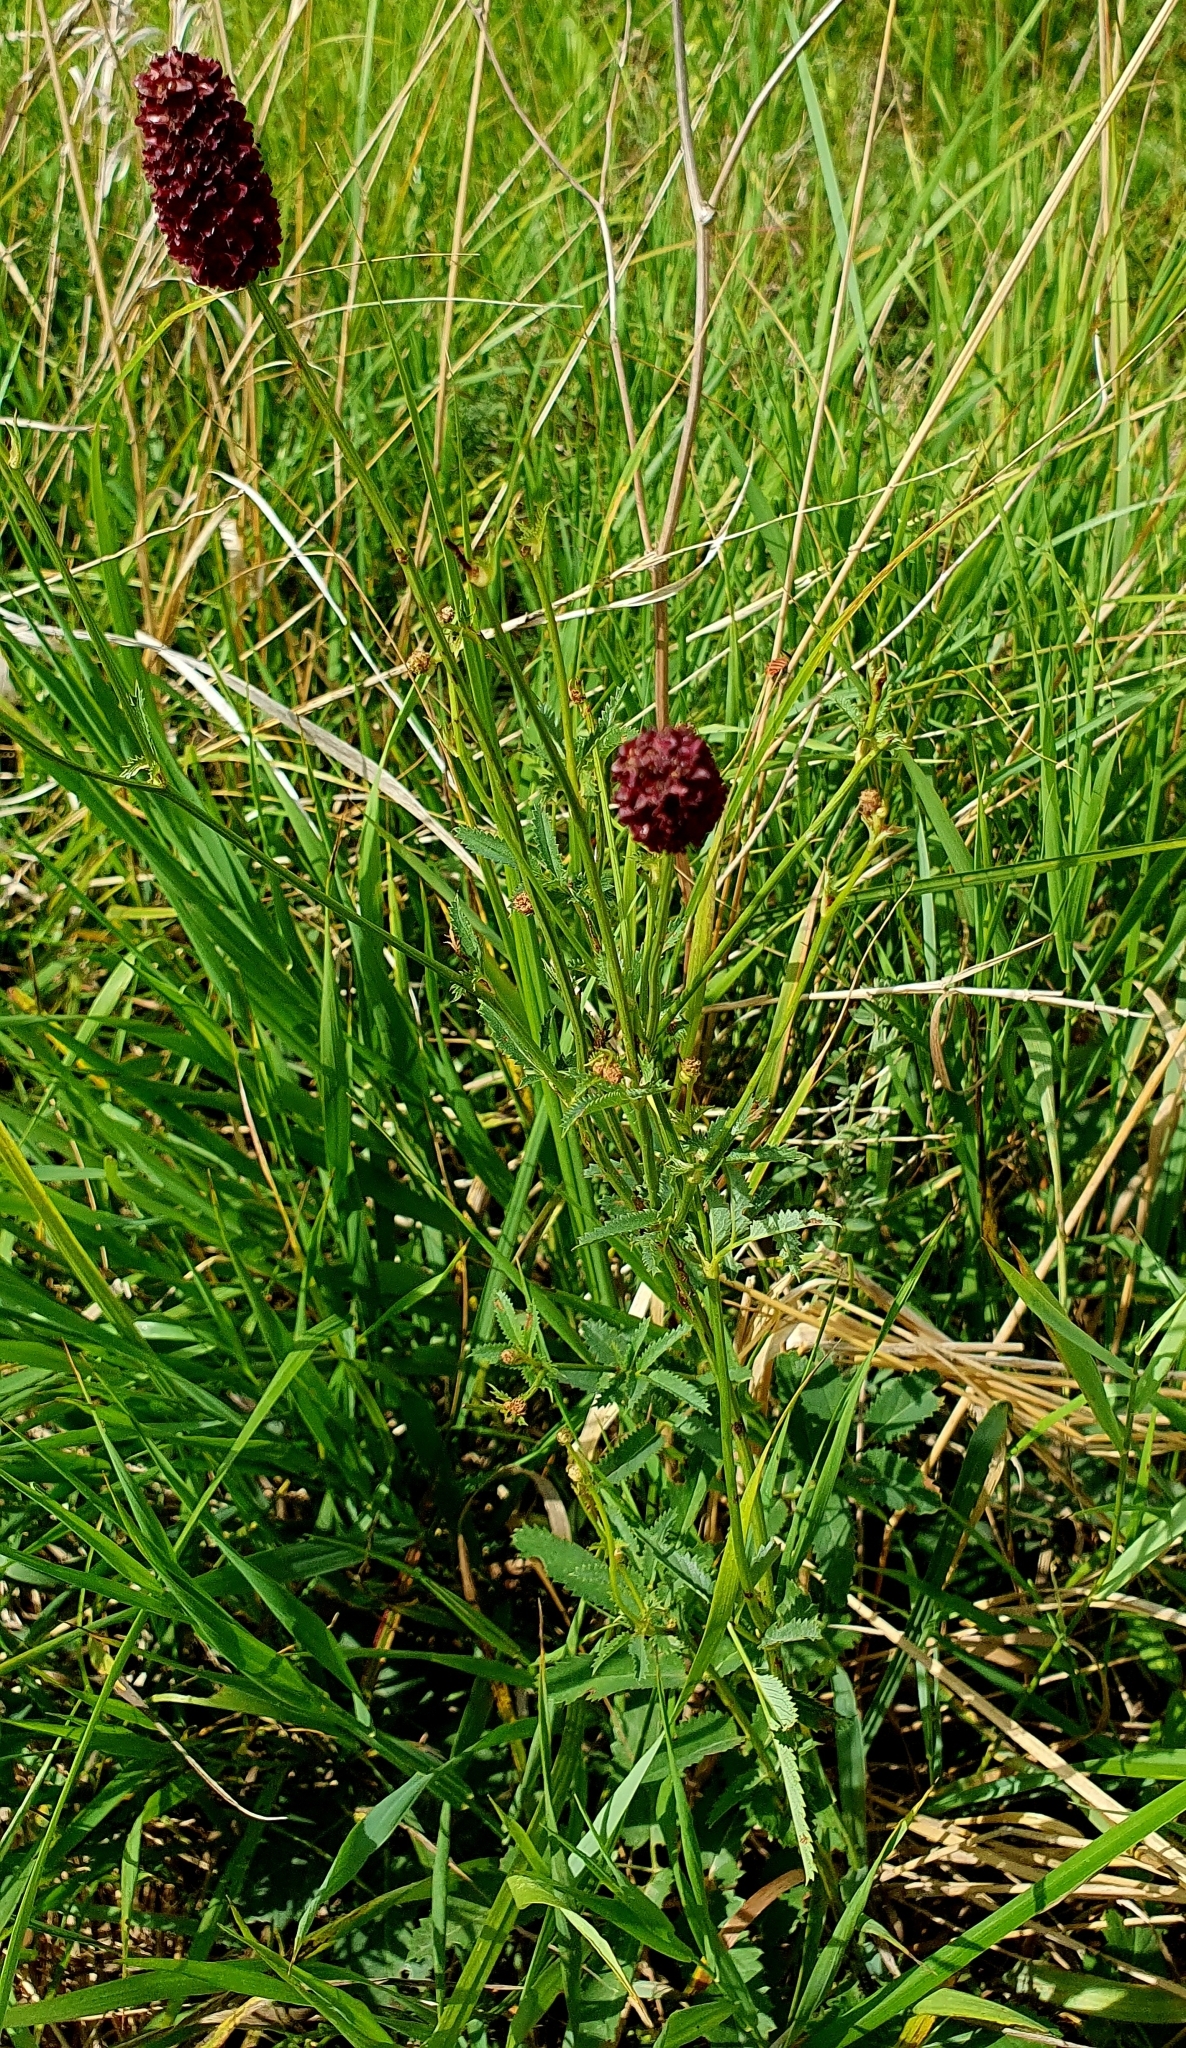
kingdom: Plantae
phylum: Tracheophyta
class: Magnoliopsida
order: Rosales
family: Rosaceae
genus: Sanguisorba
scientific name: Sanguisorba officinalis
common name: Great burnet
